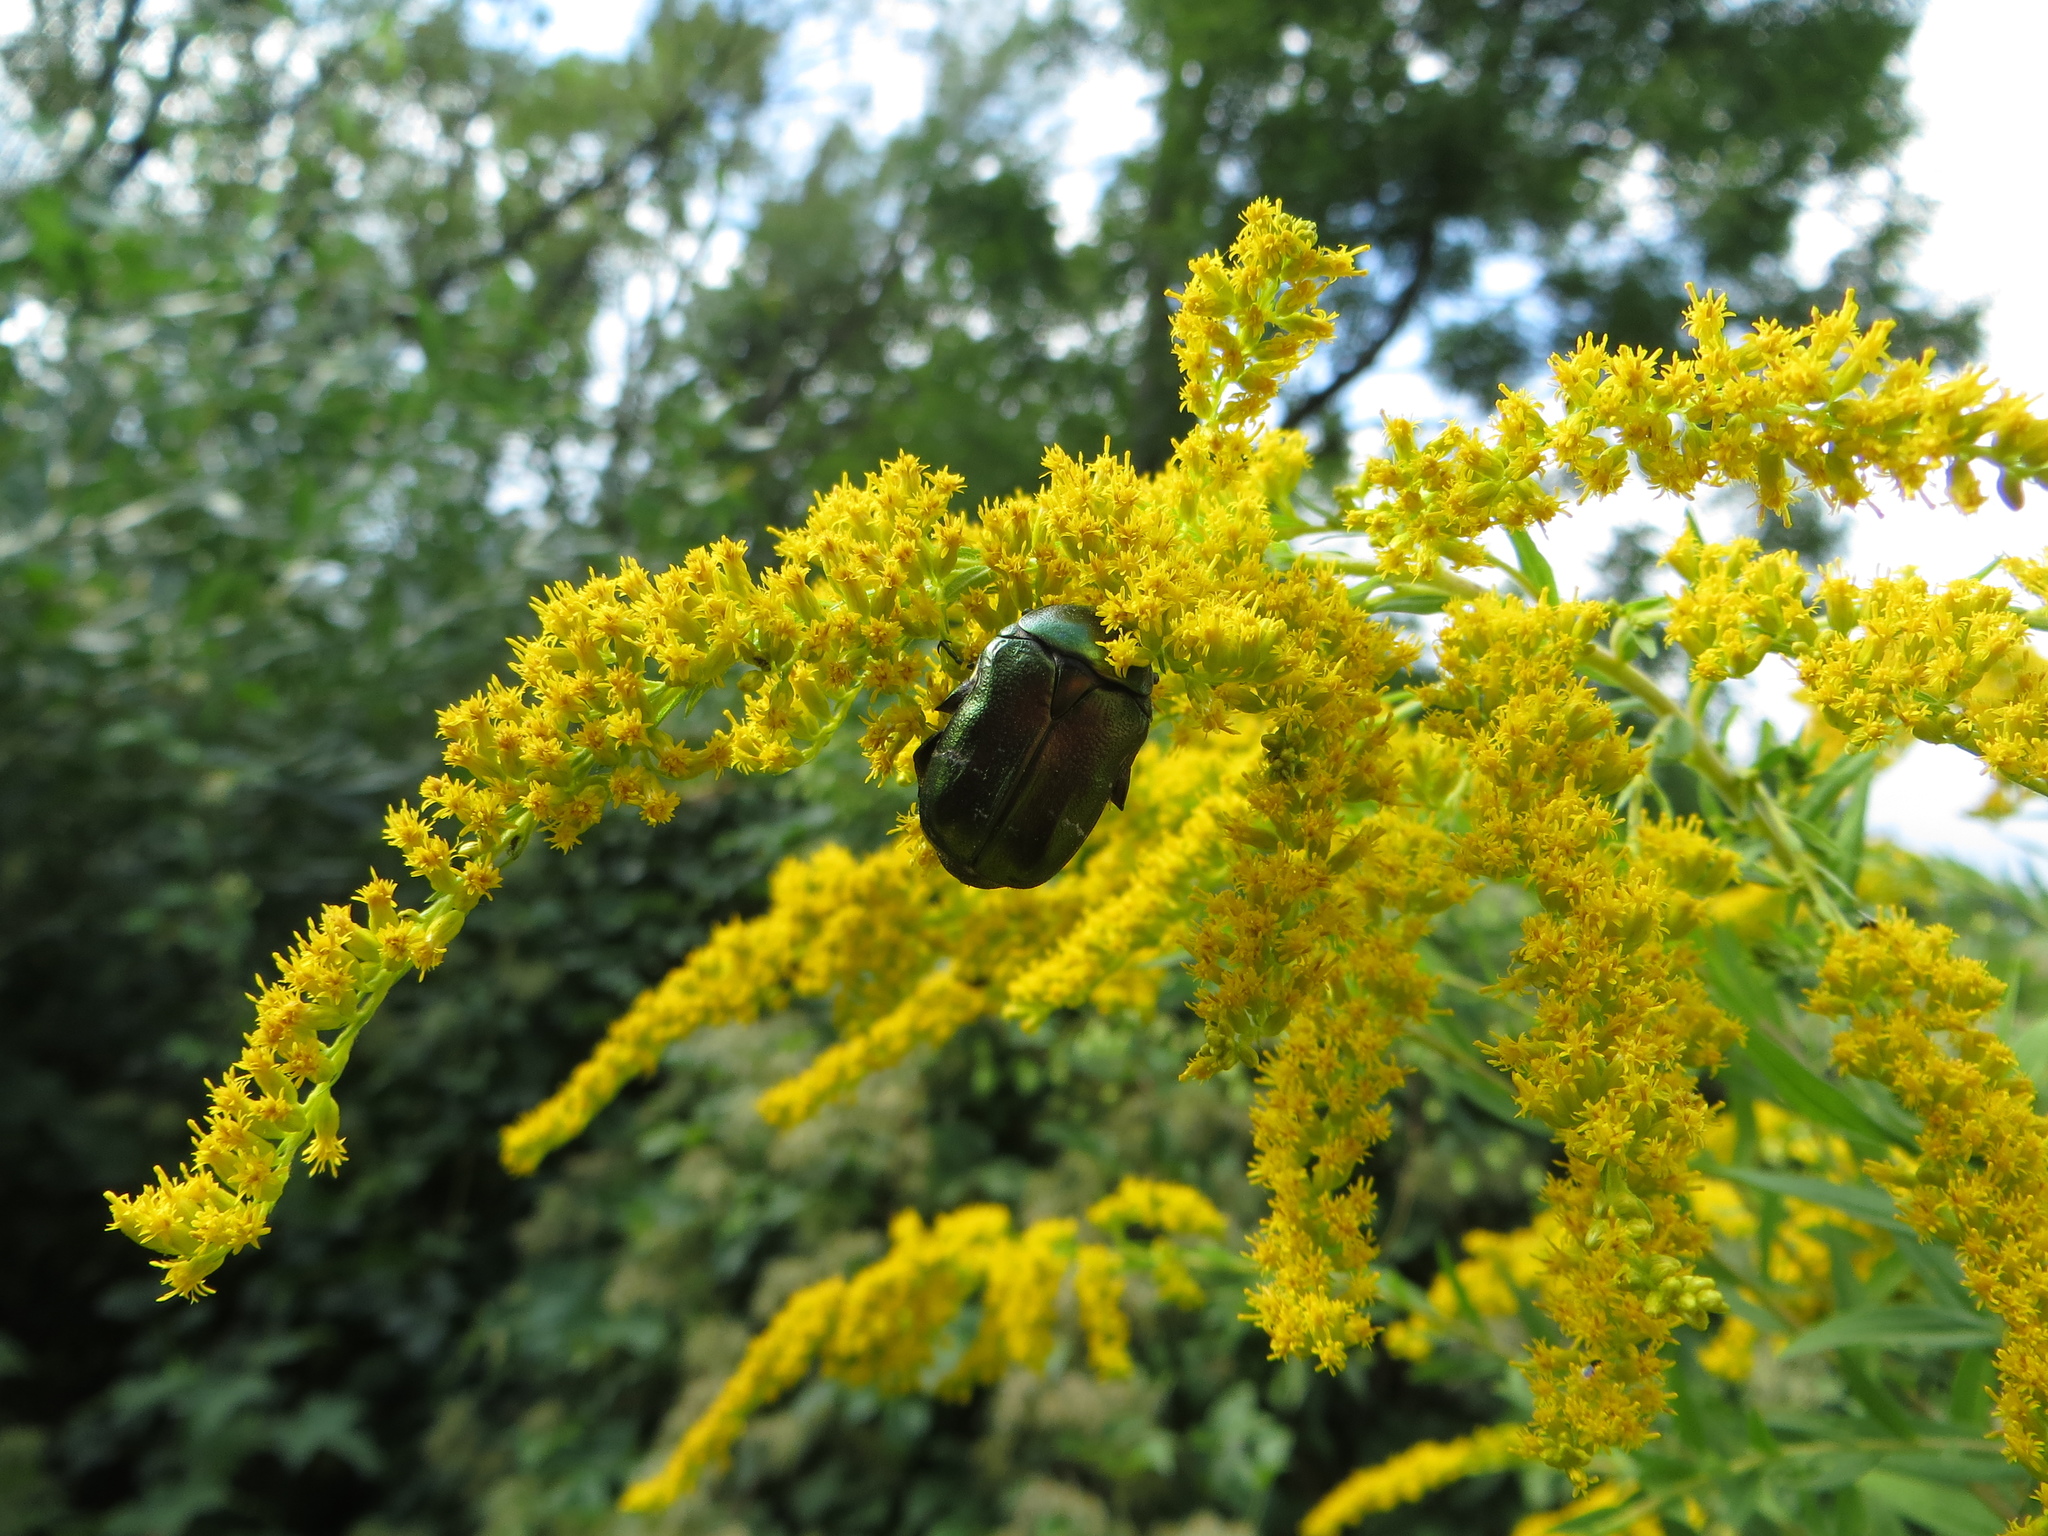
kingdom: Animalia
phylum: Arthropoda
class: Insecta
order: Coleoptera
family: Scarabaeidae
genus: Cetonia
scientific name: Cetonia aurata
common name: Rose chafer
